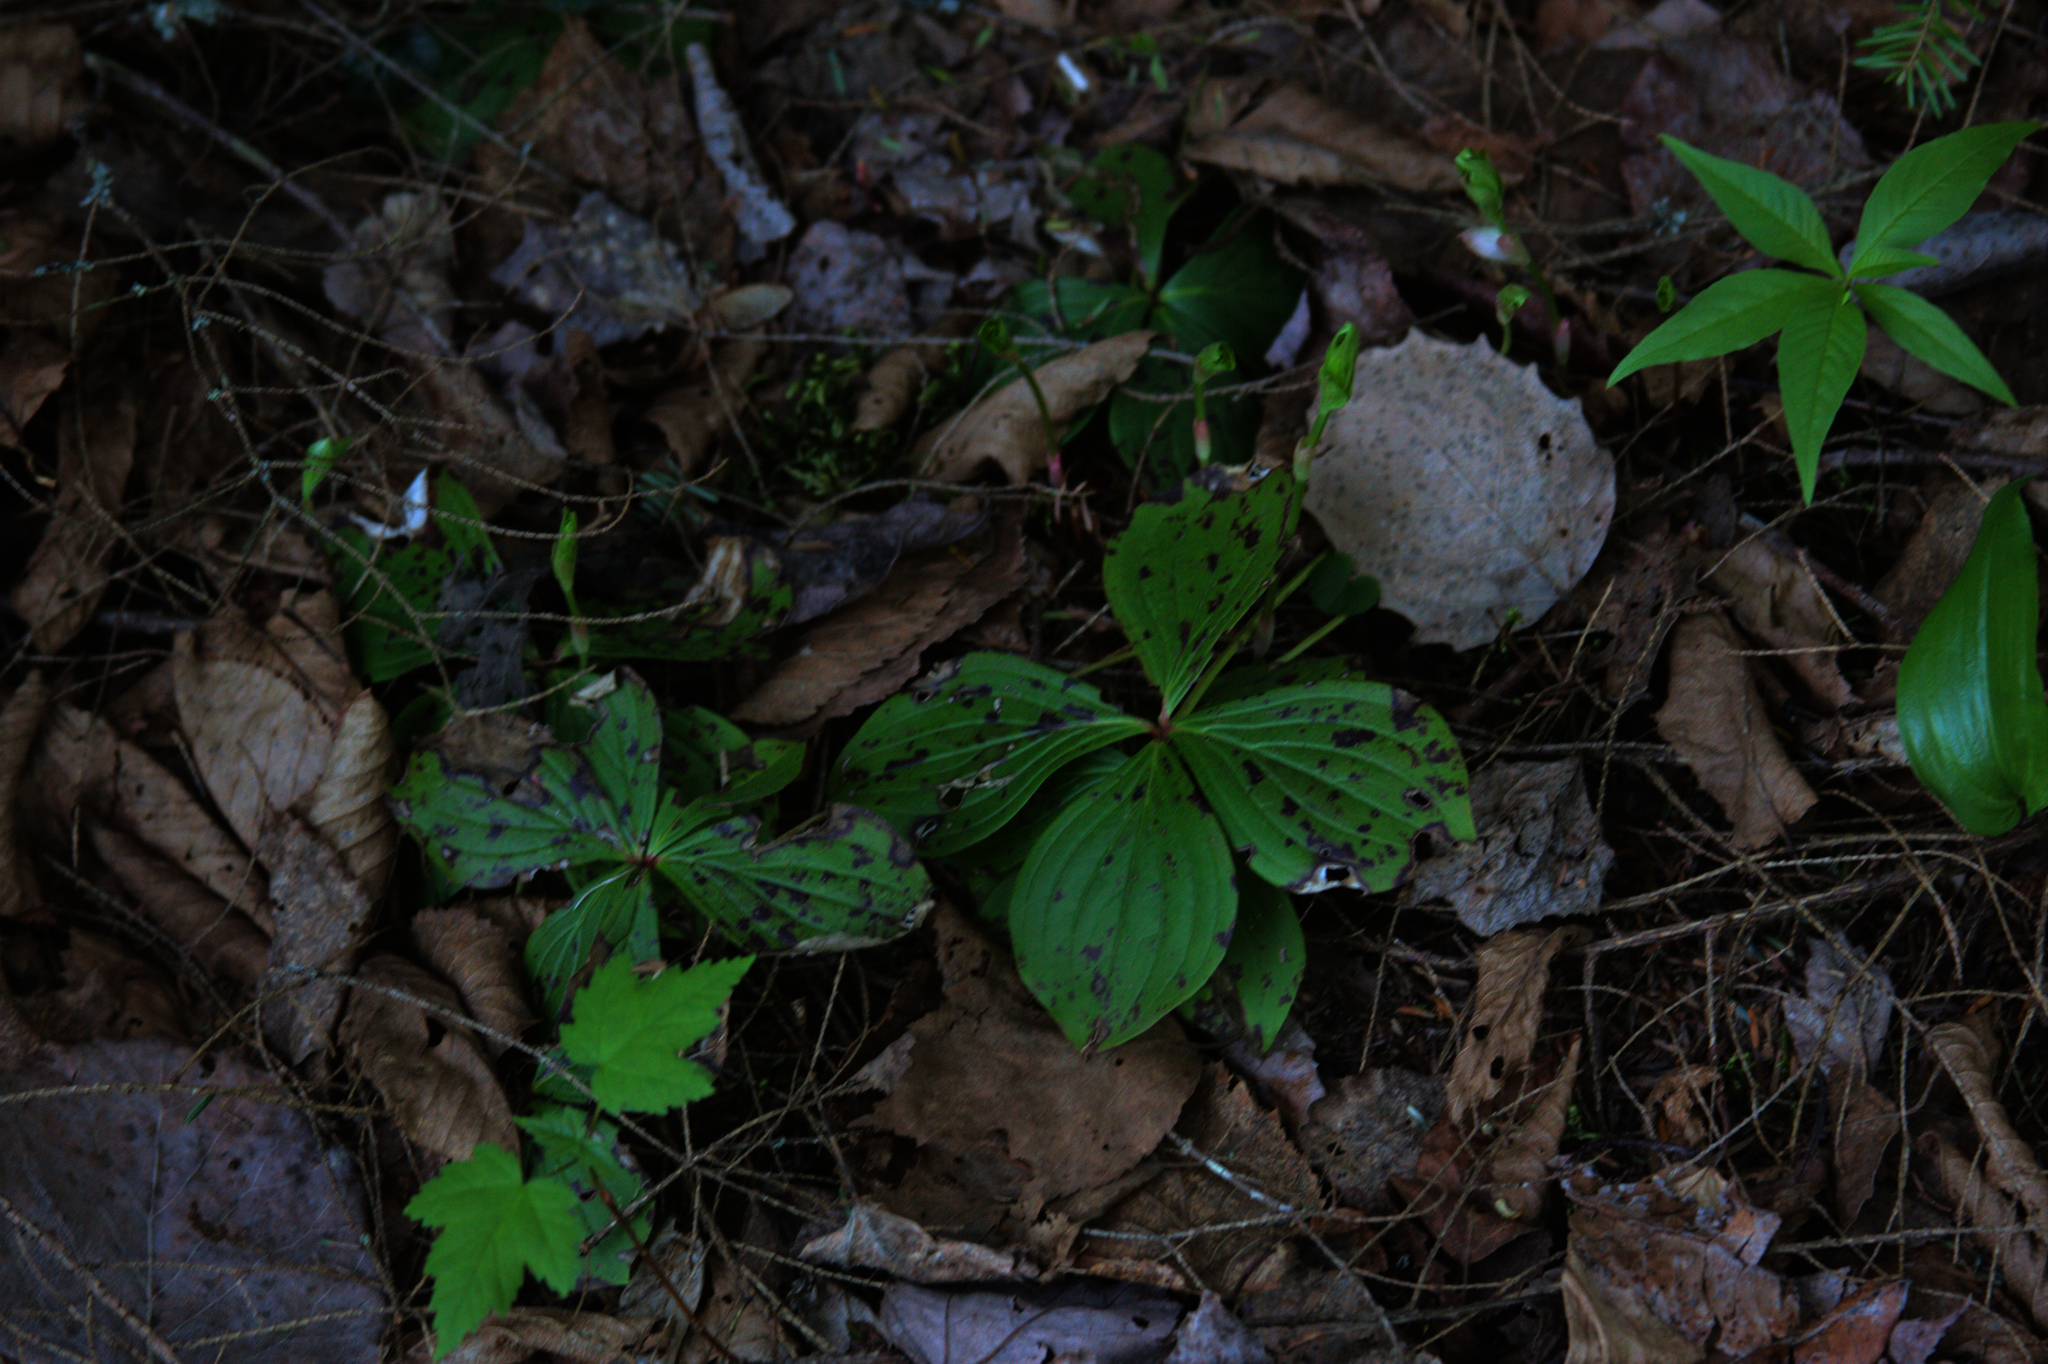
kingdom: Plantae
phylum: Tracheophyta
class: Magnoliopsida
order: Sapindales
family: Sapindaceae
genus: Acer
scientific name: Acer rubrum
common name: Red maple
